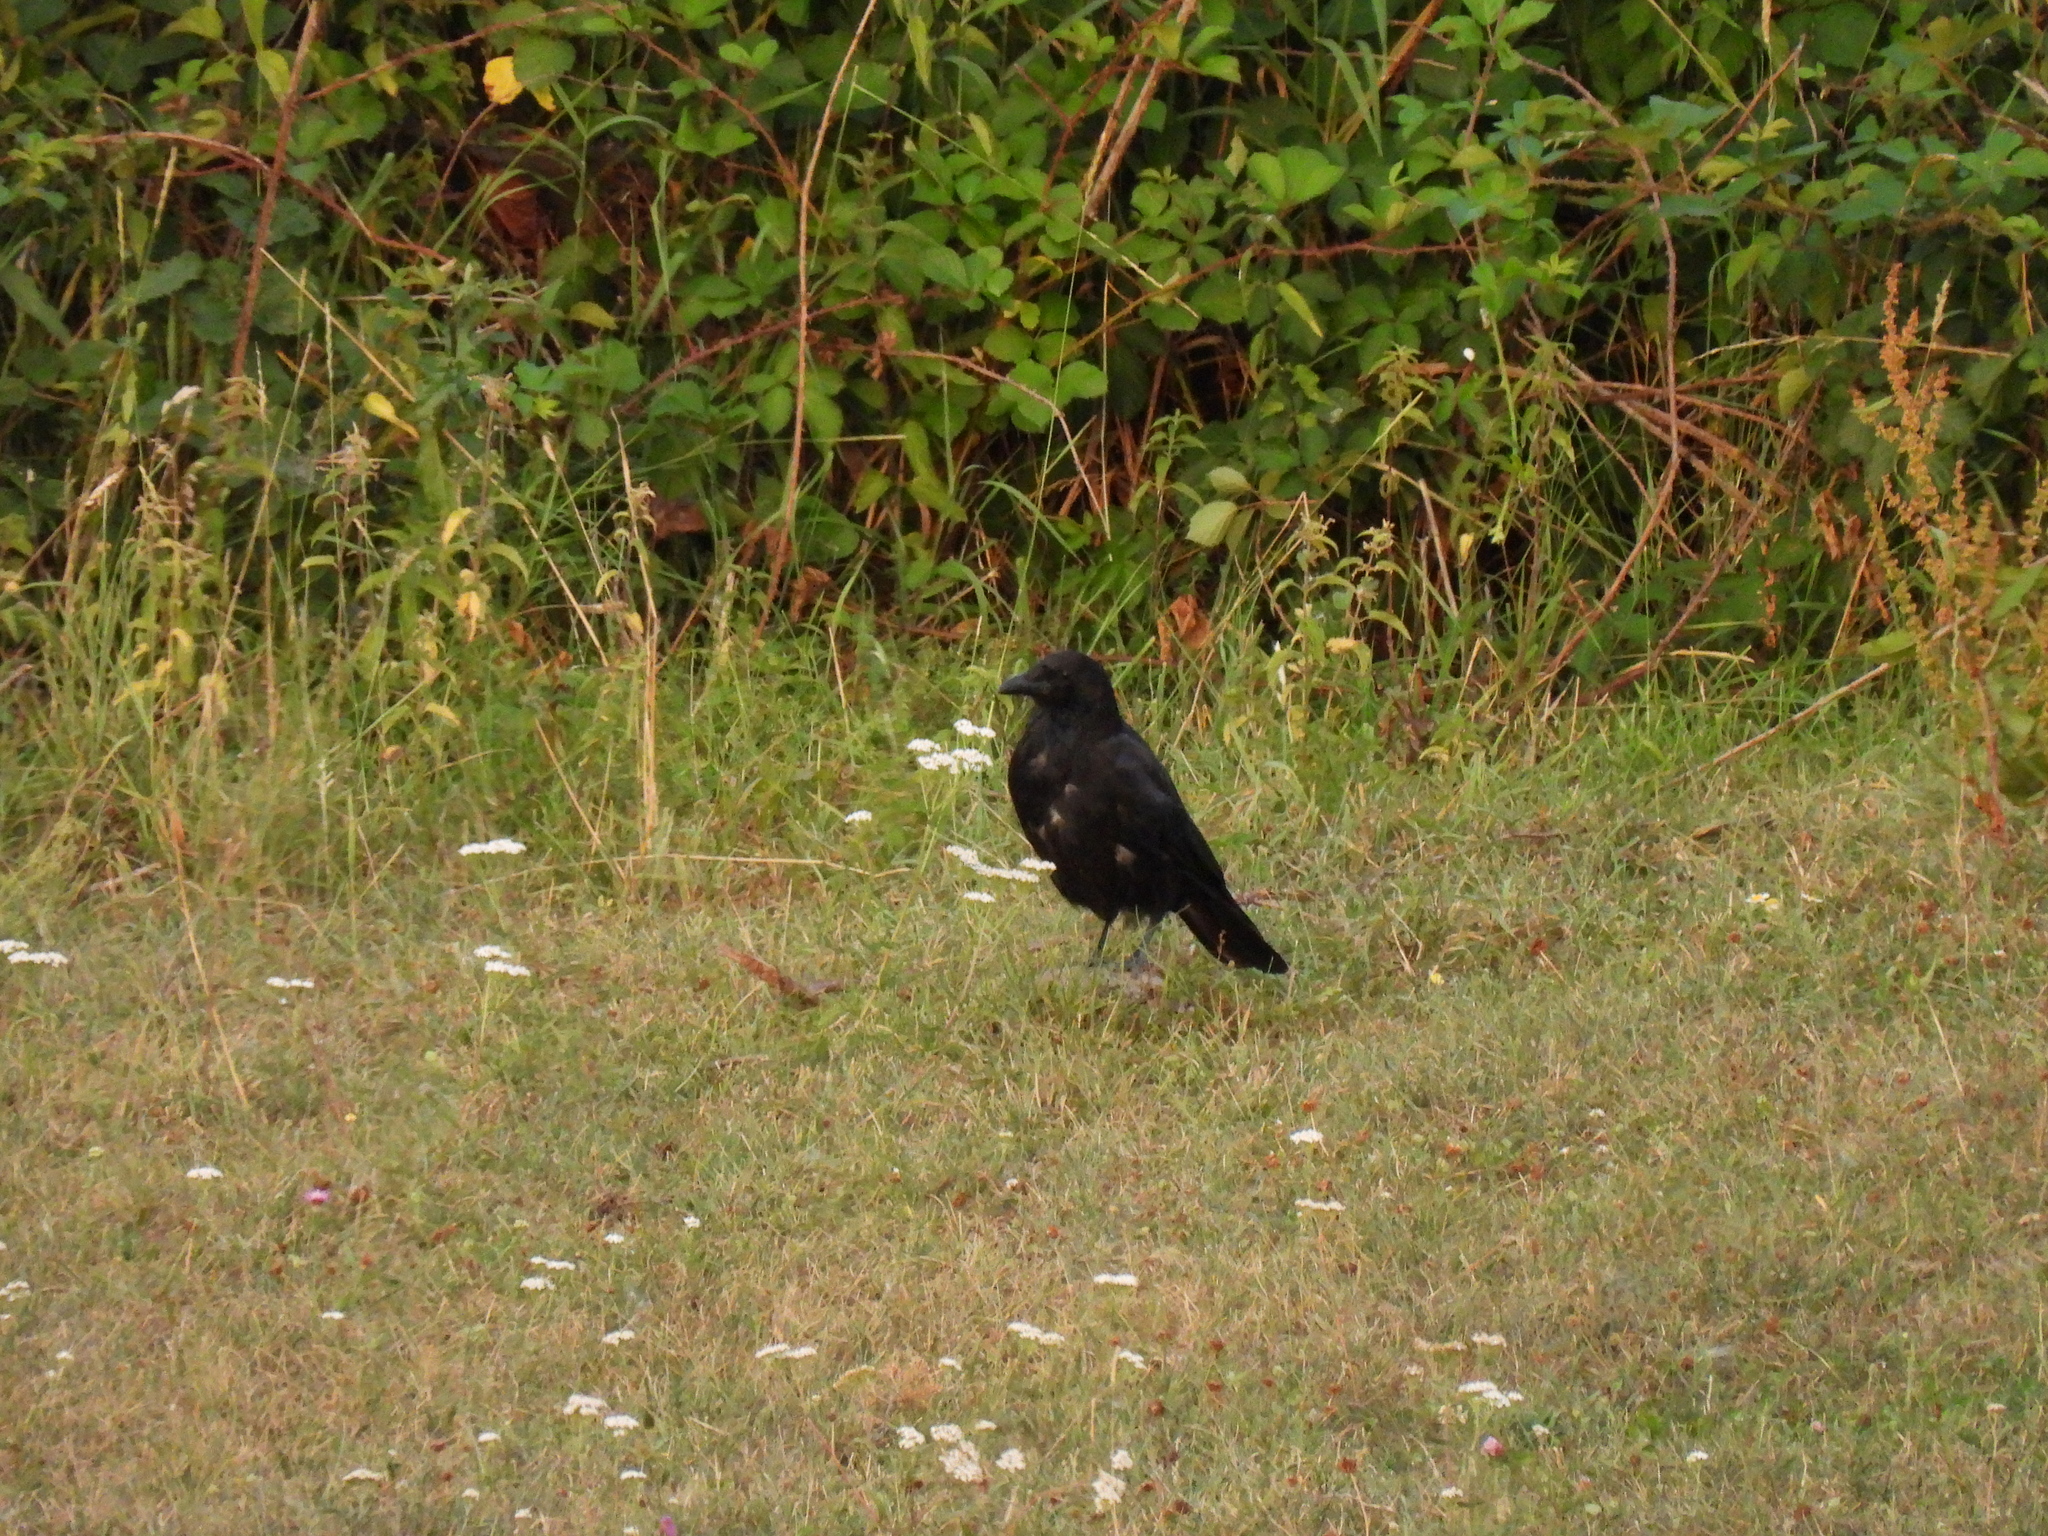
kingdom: Animalia
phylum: Chordata
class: Aves
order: Passeriformes
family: Corvidae
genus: Corvus
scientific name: Corvus corone
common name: Carrion crow
